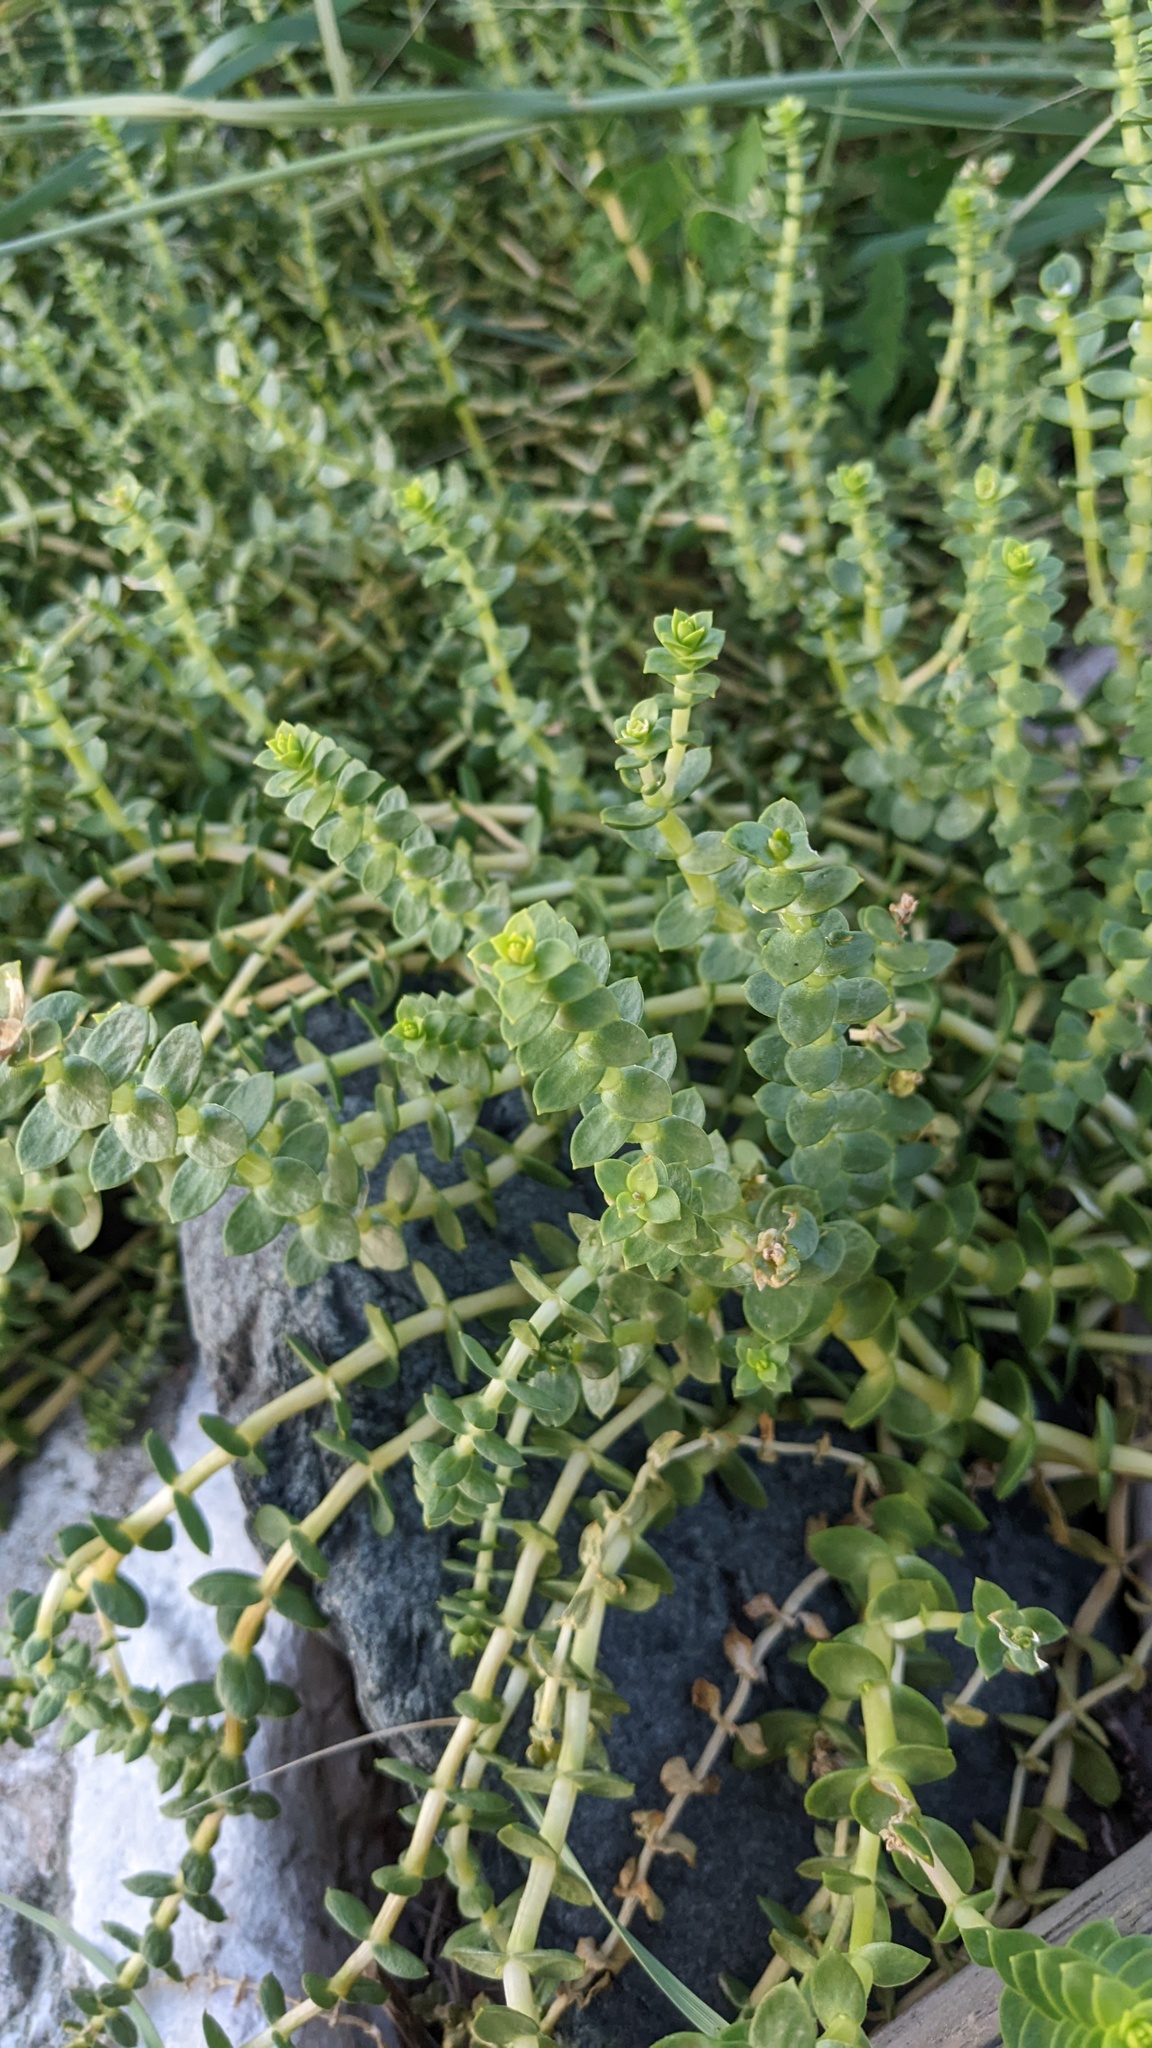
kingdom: Plantae
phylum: Tracheophyta
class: Magnoliopsida
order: Caryophyllales
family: Caryophyllaceae
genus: Honckenya
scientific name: Honckenya peploides
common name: Sea sandwort
